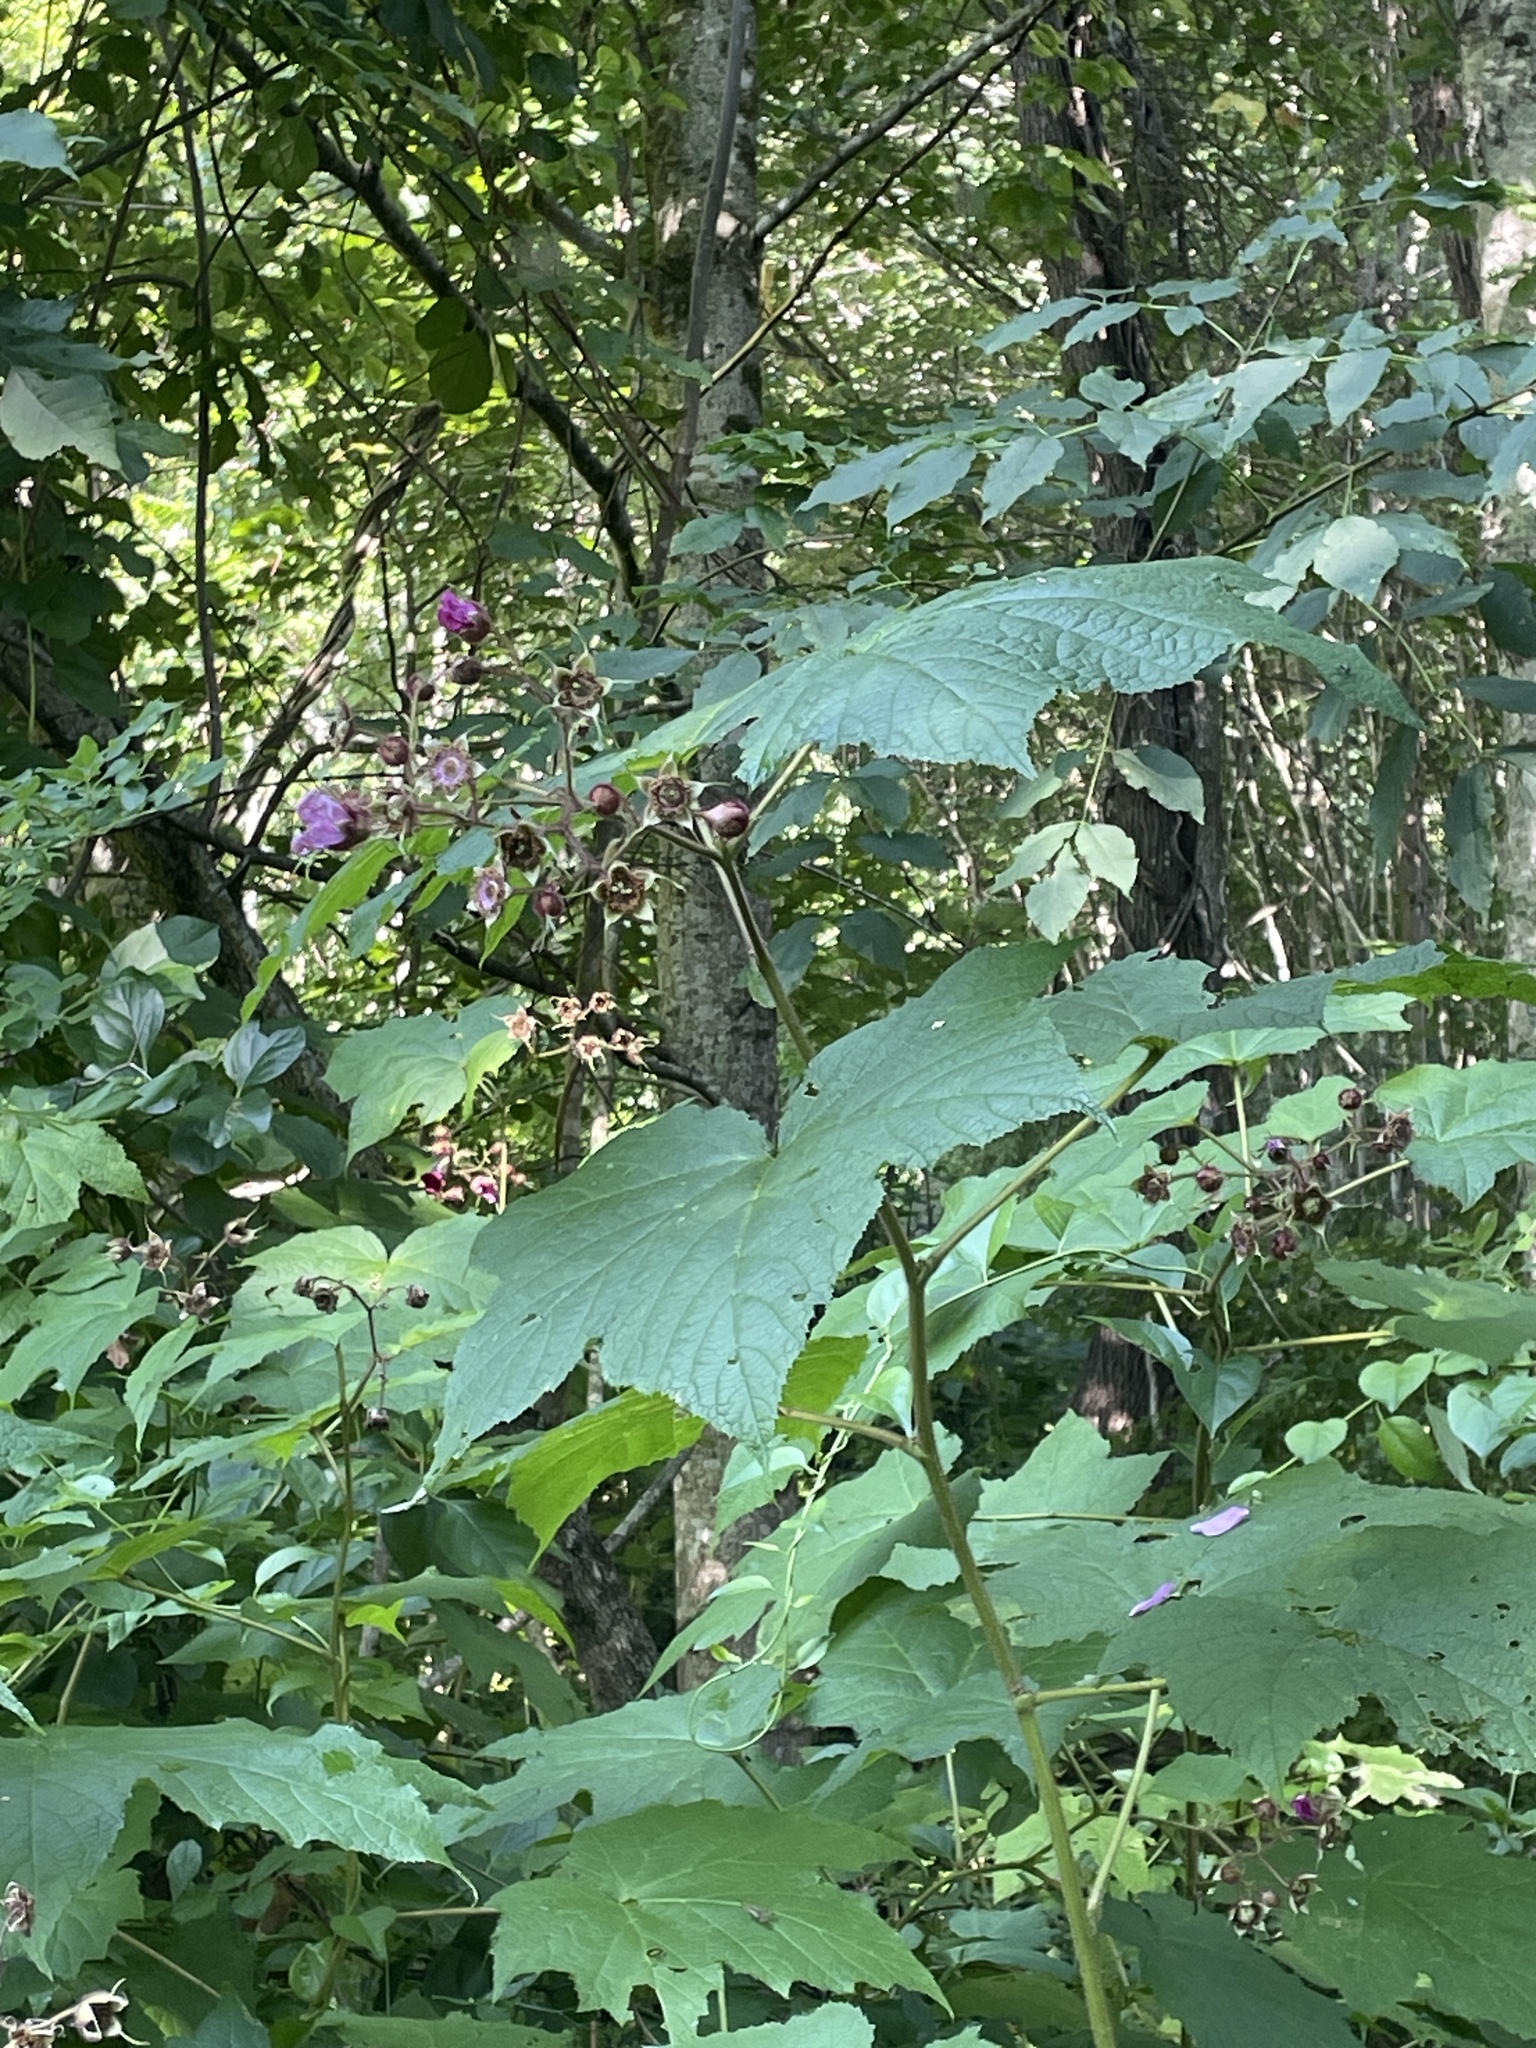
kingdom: Plantae
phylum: Tracheophyta
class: Magnoliopsida
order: Rosales
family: Rosaceae
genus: Rubus
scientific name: Rubus odoratus
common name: Purple-flowered raspberry
